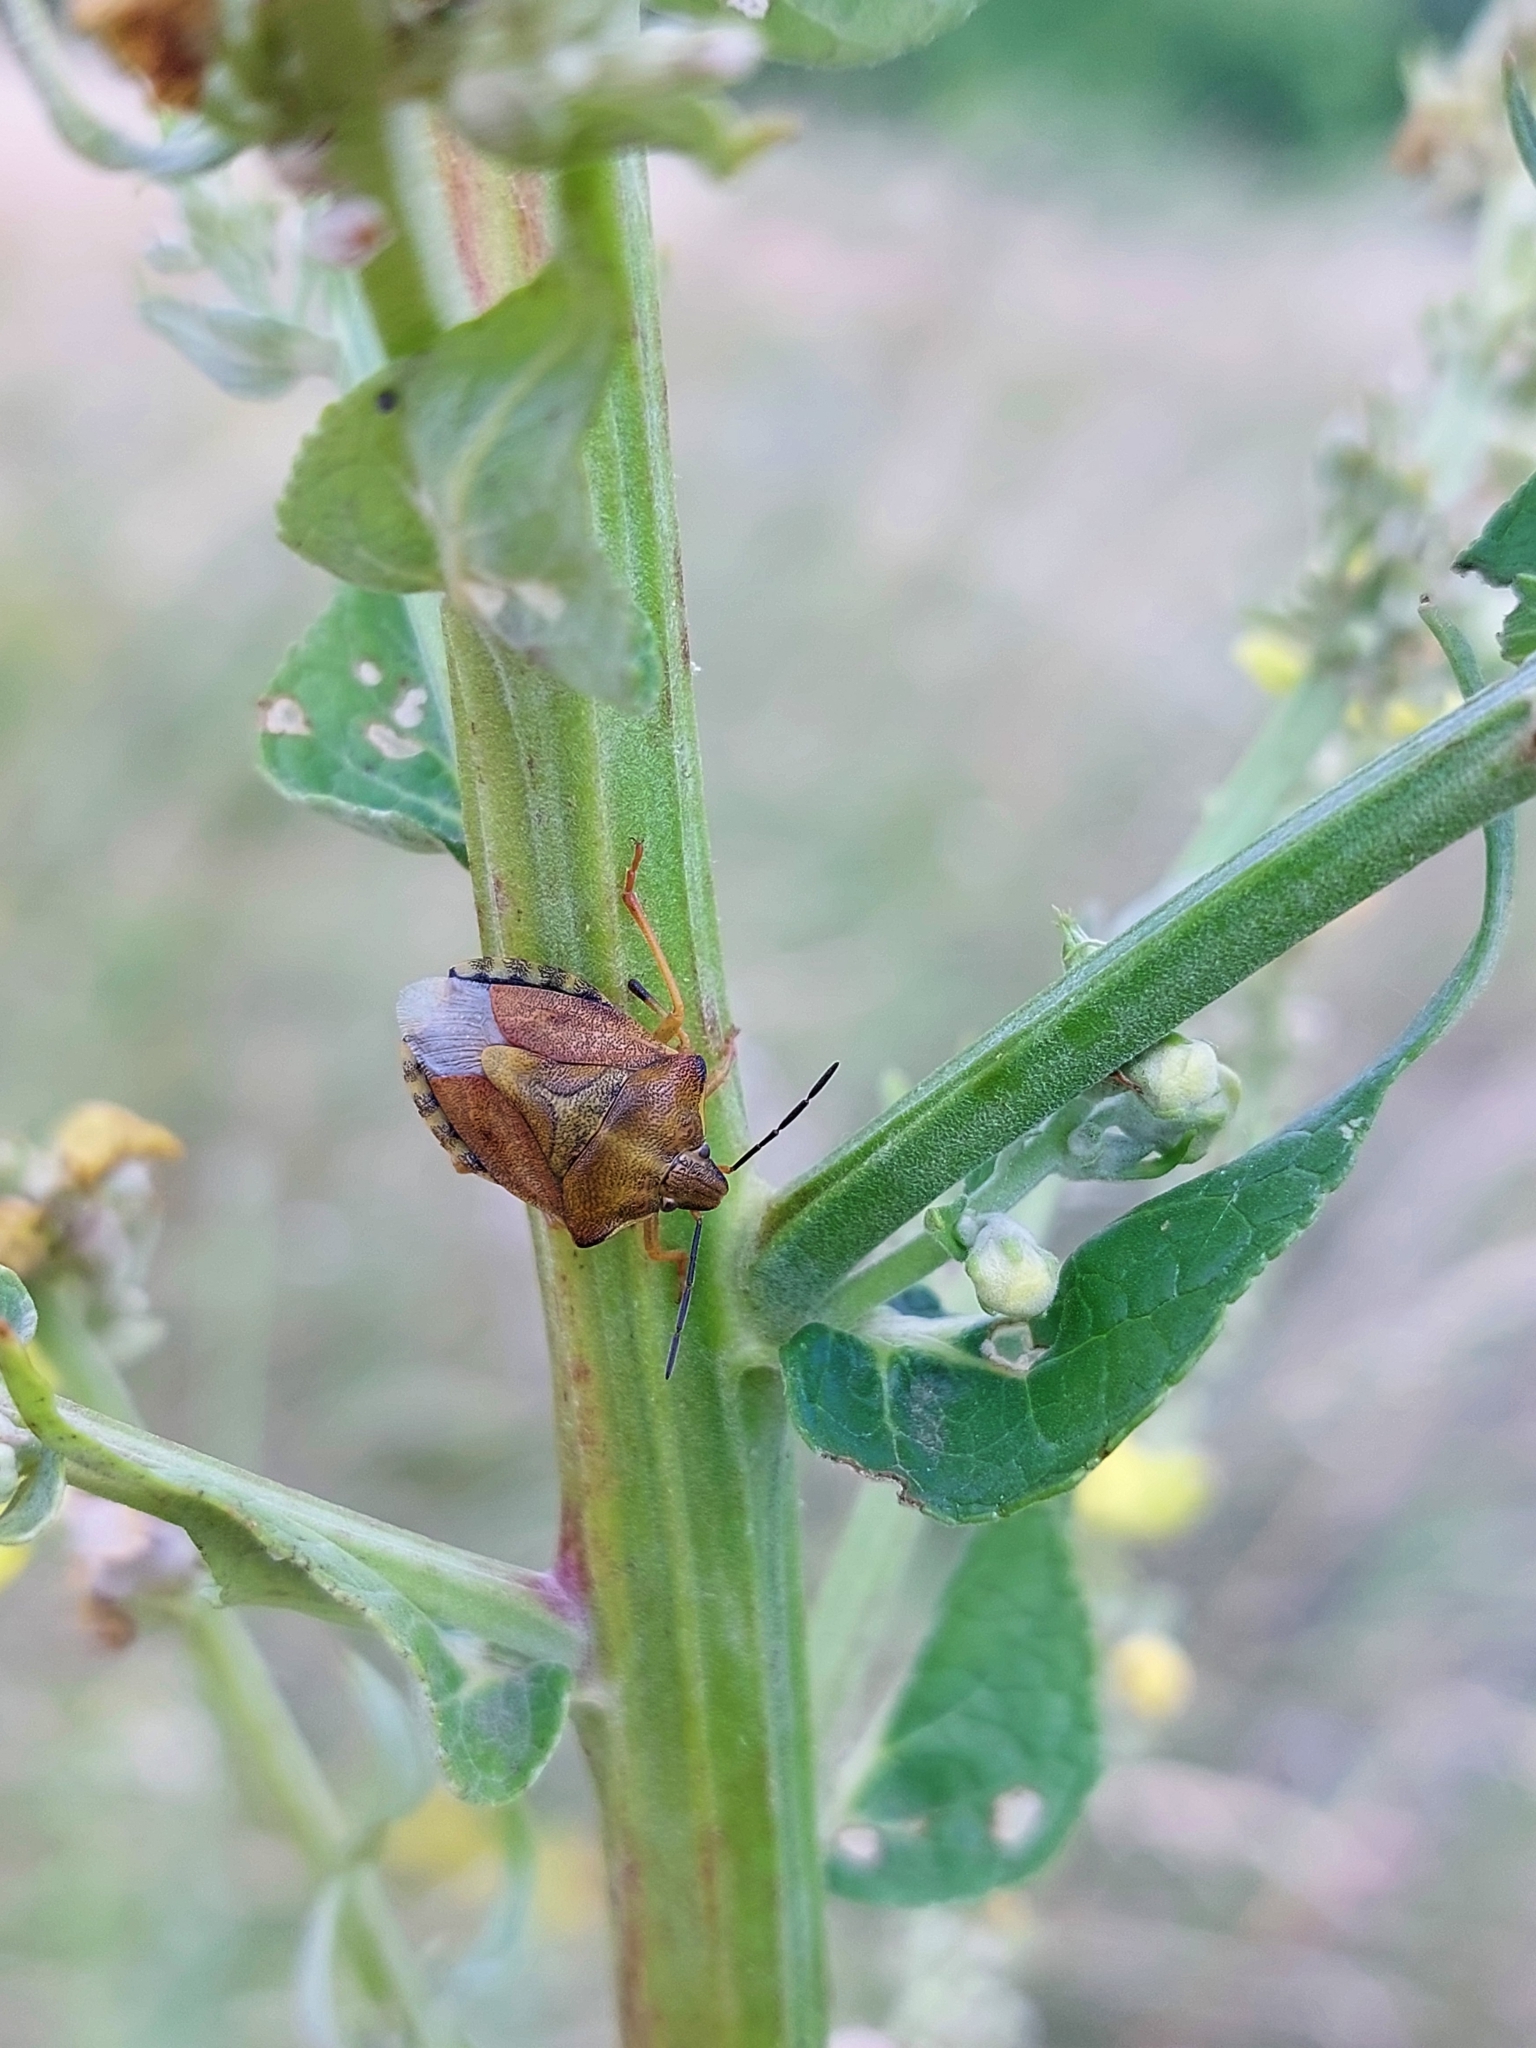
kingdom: Animalia
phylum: Arthropoda
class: Insecta
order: Hemiptera
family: Pentatomidae
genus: Carpocoris
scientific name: Carpocoris purpureipennis
